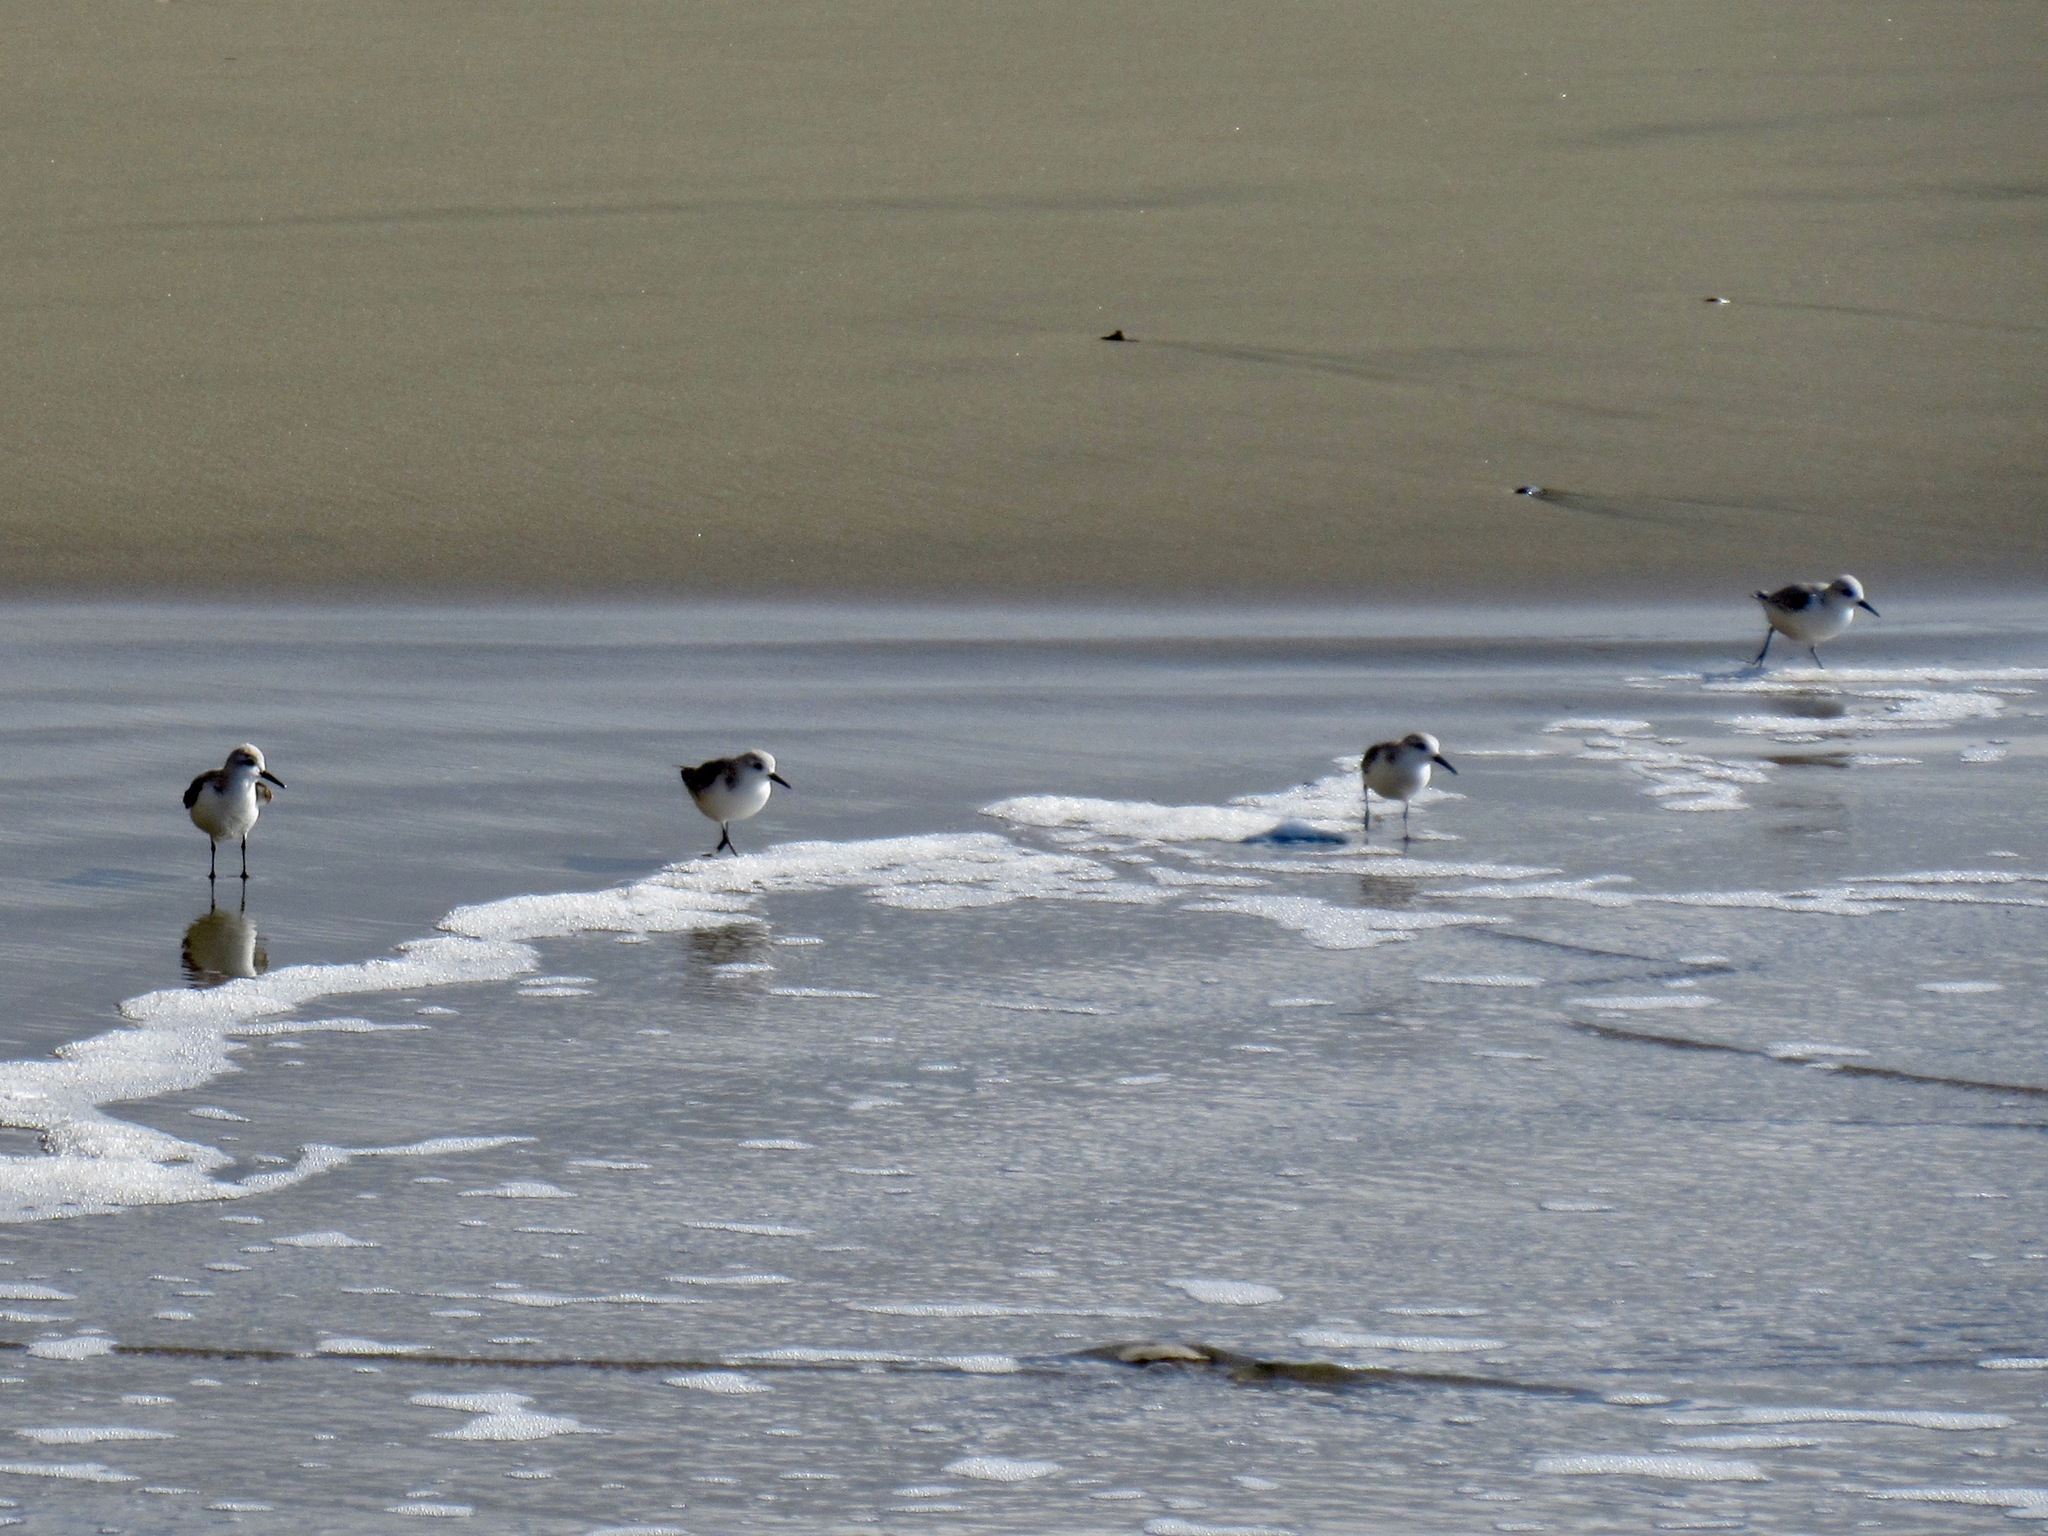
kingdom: Animalia
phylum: Chordata
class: Aves
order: Charadriiformes
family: Scolopacidae
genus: Calidris
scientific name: Calidris alba
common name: Sanderling
